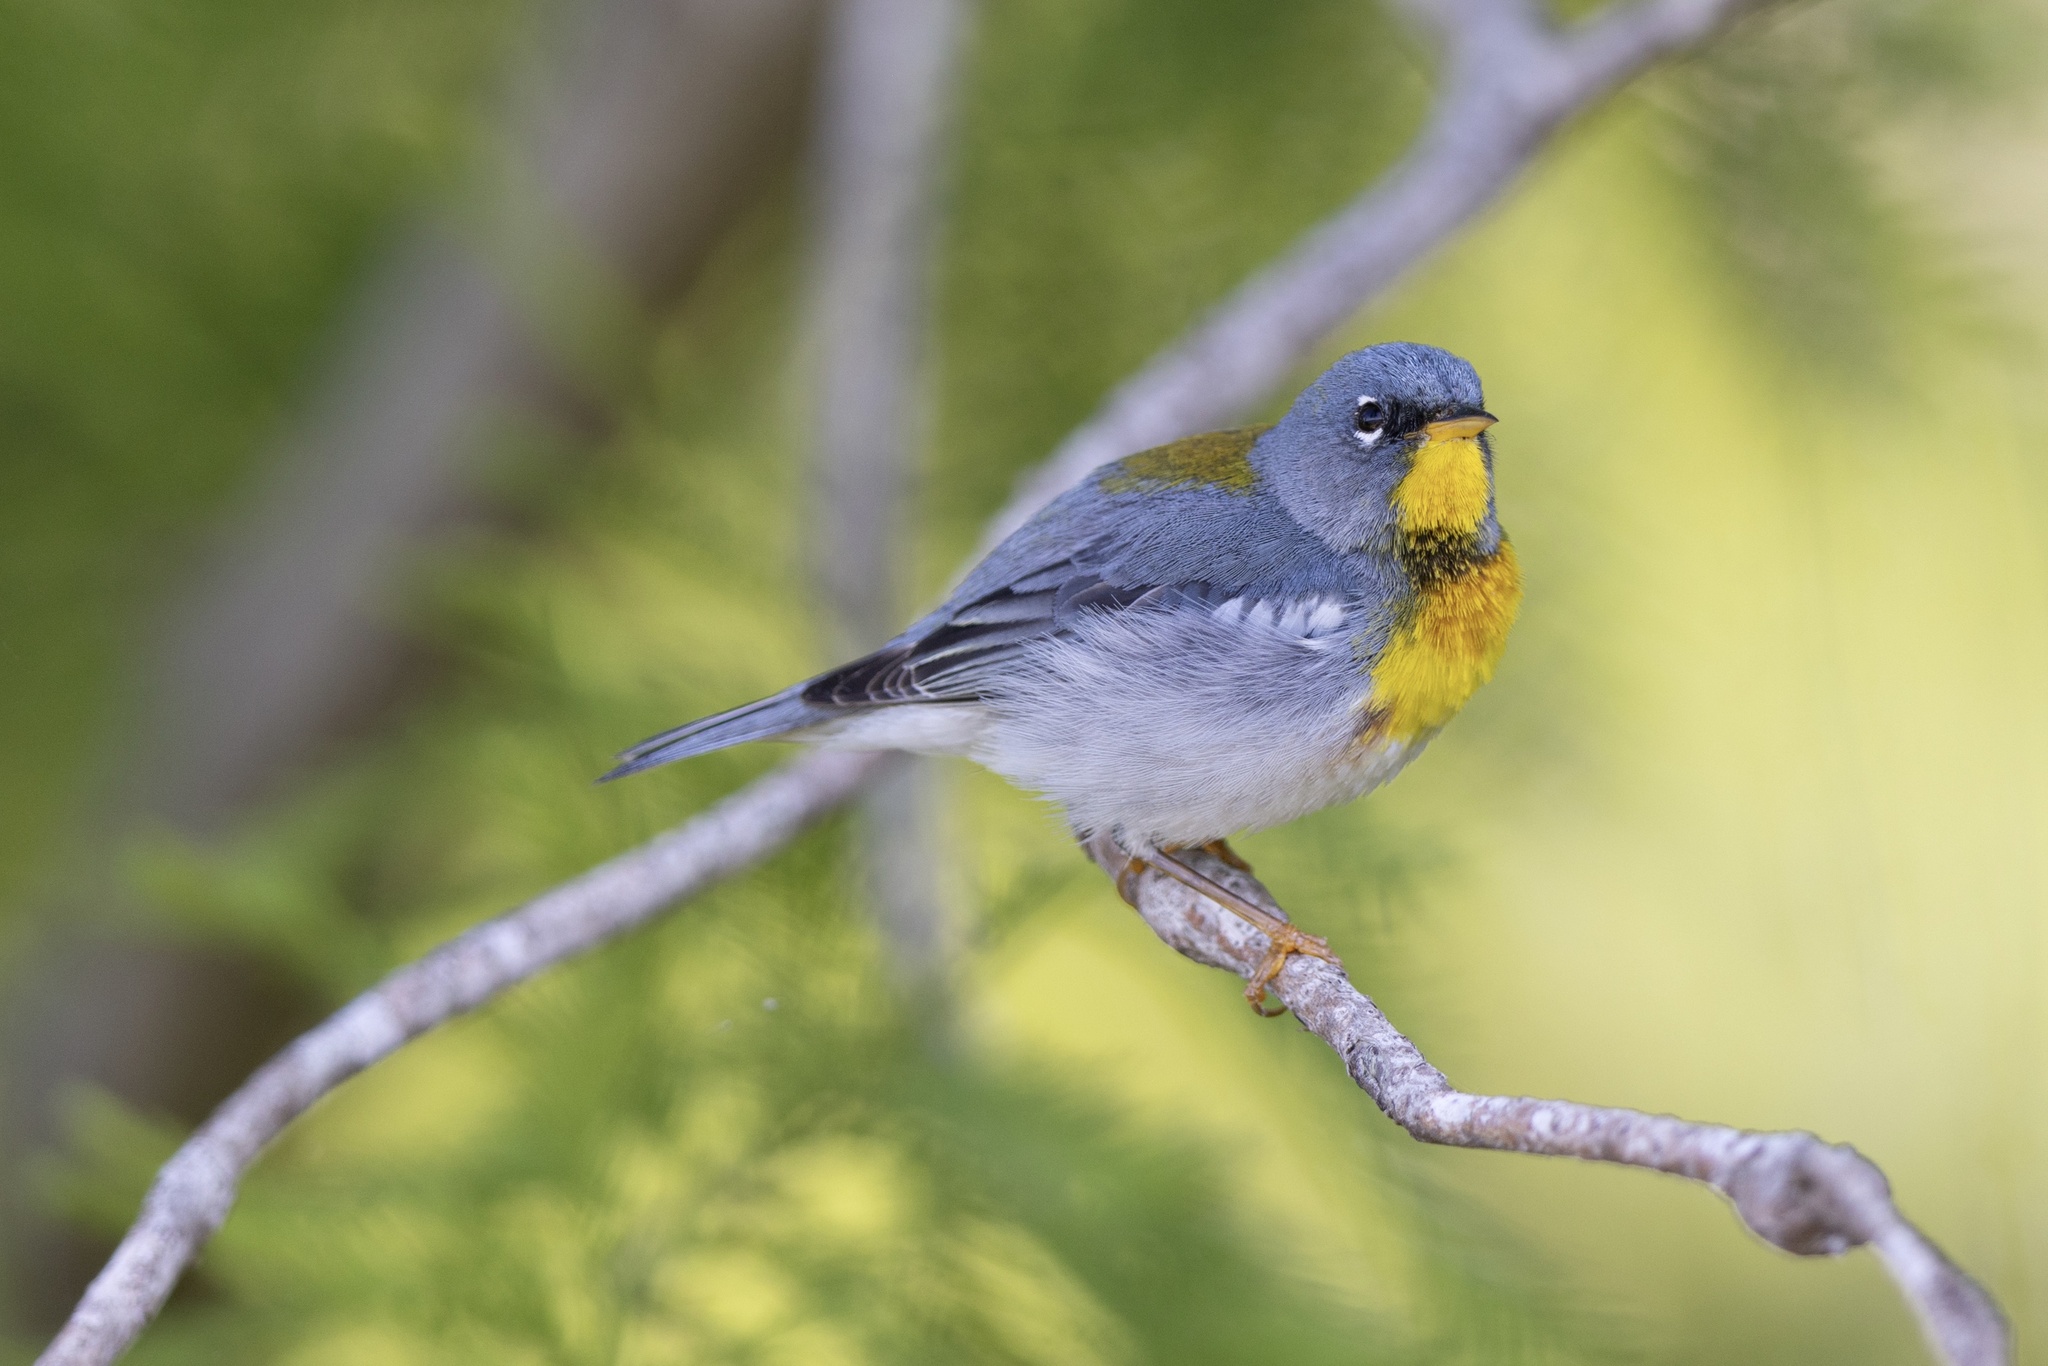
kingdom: Animalia
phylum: Chordata
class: Aves
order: Passeriformes
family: Parulidae
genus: Setophaga
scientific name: Setophaga americana
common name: Northern parula
